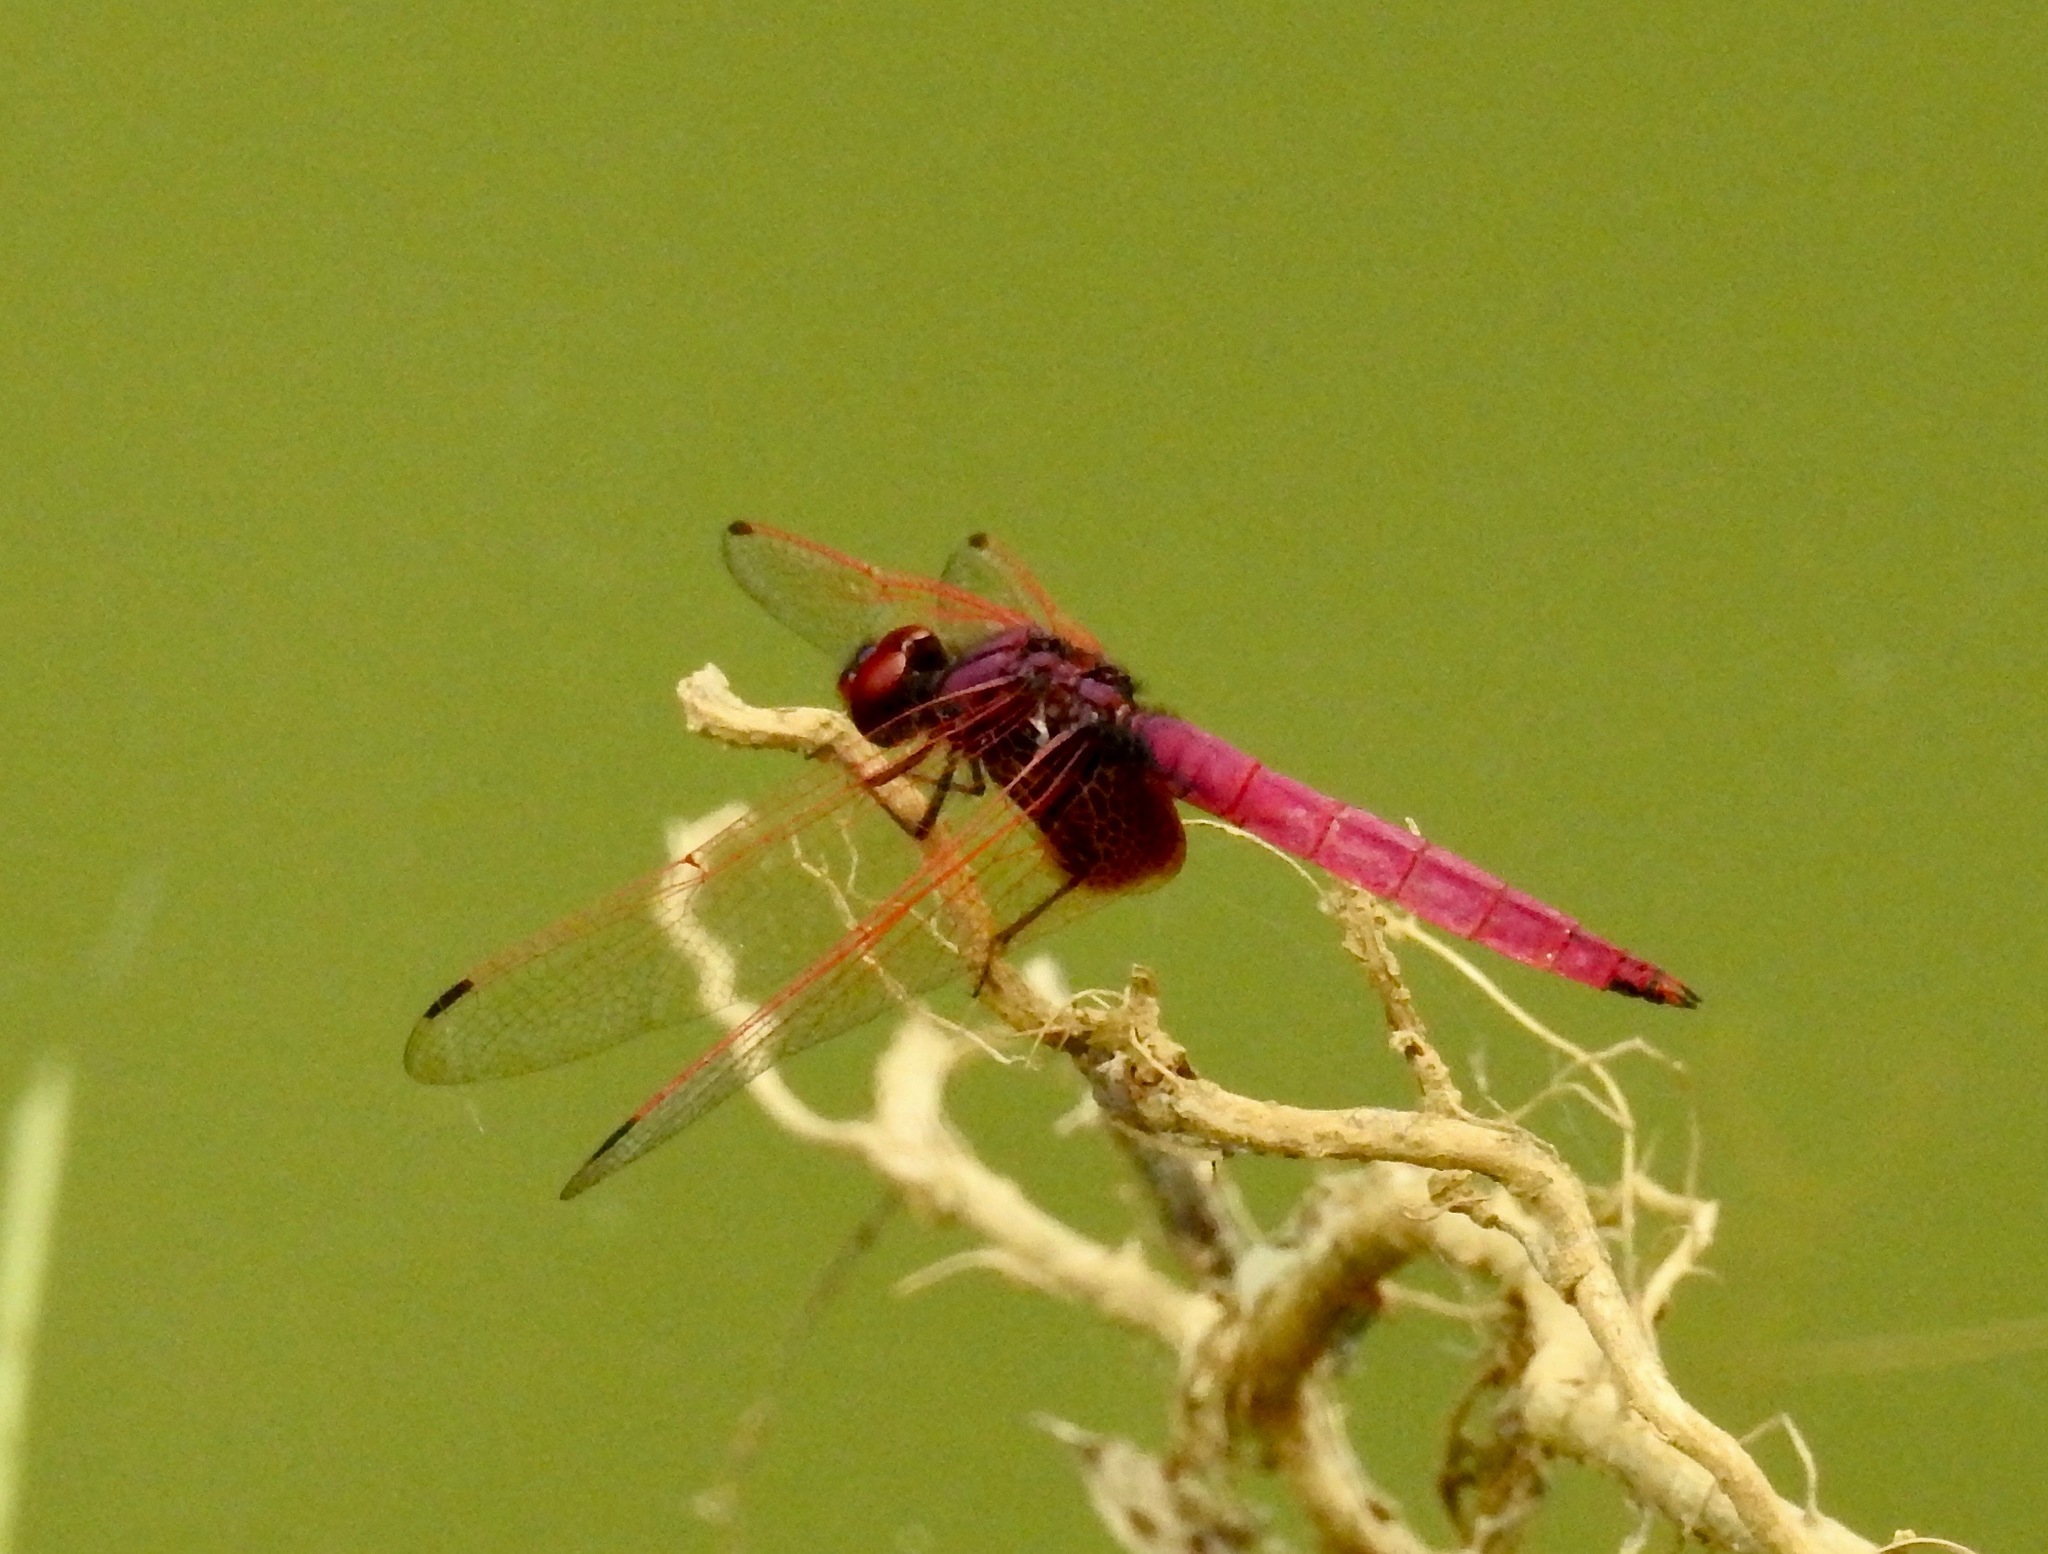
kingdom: Animalia
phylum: Arthropoda
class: Insecta
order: Odonata
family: Libellulidae
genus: Trithemis
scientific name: Trithemis aurora
